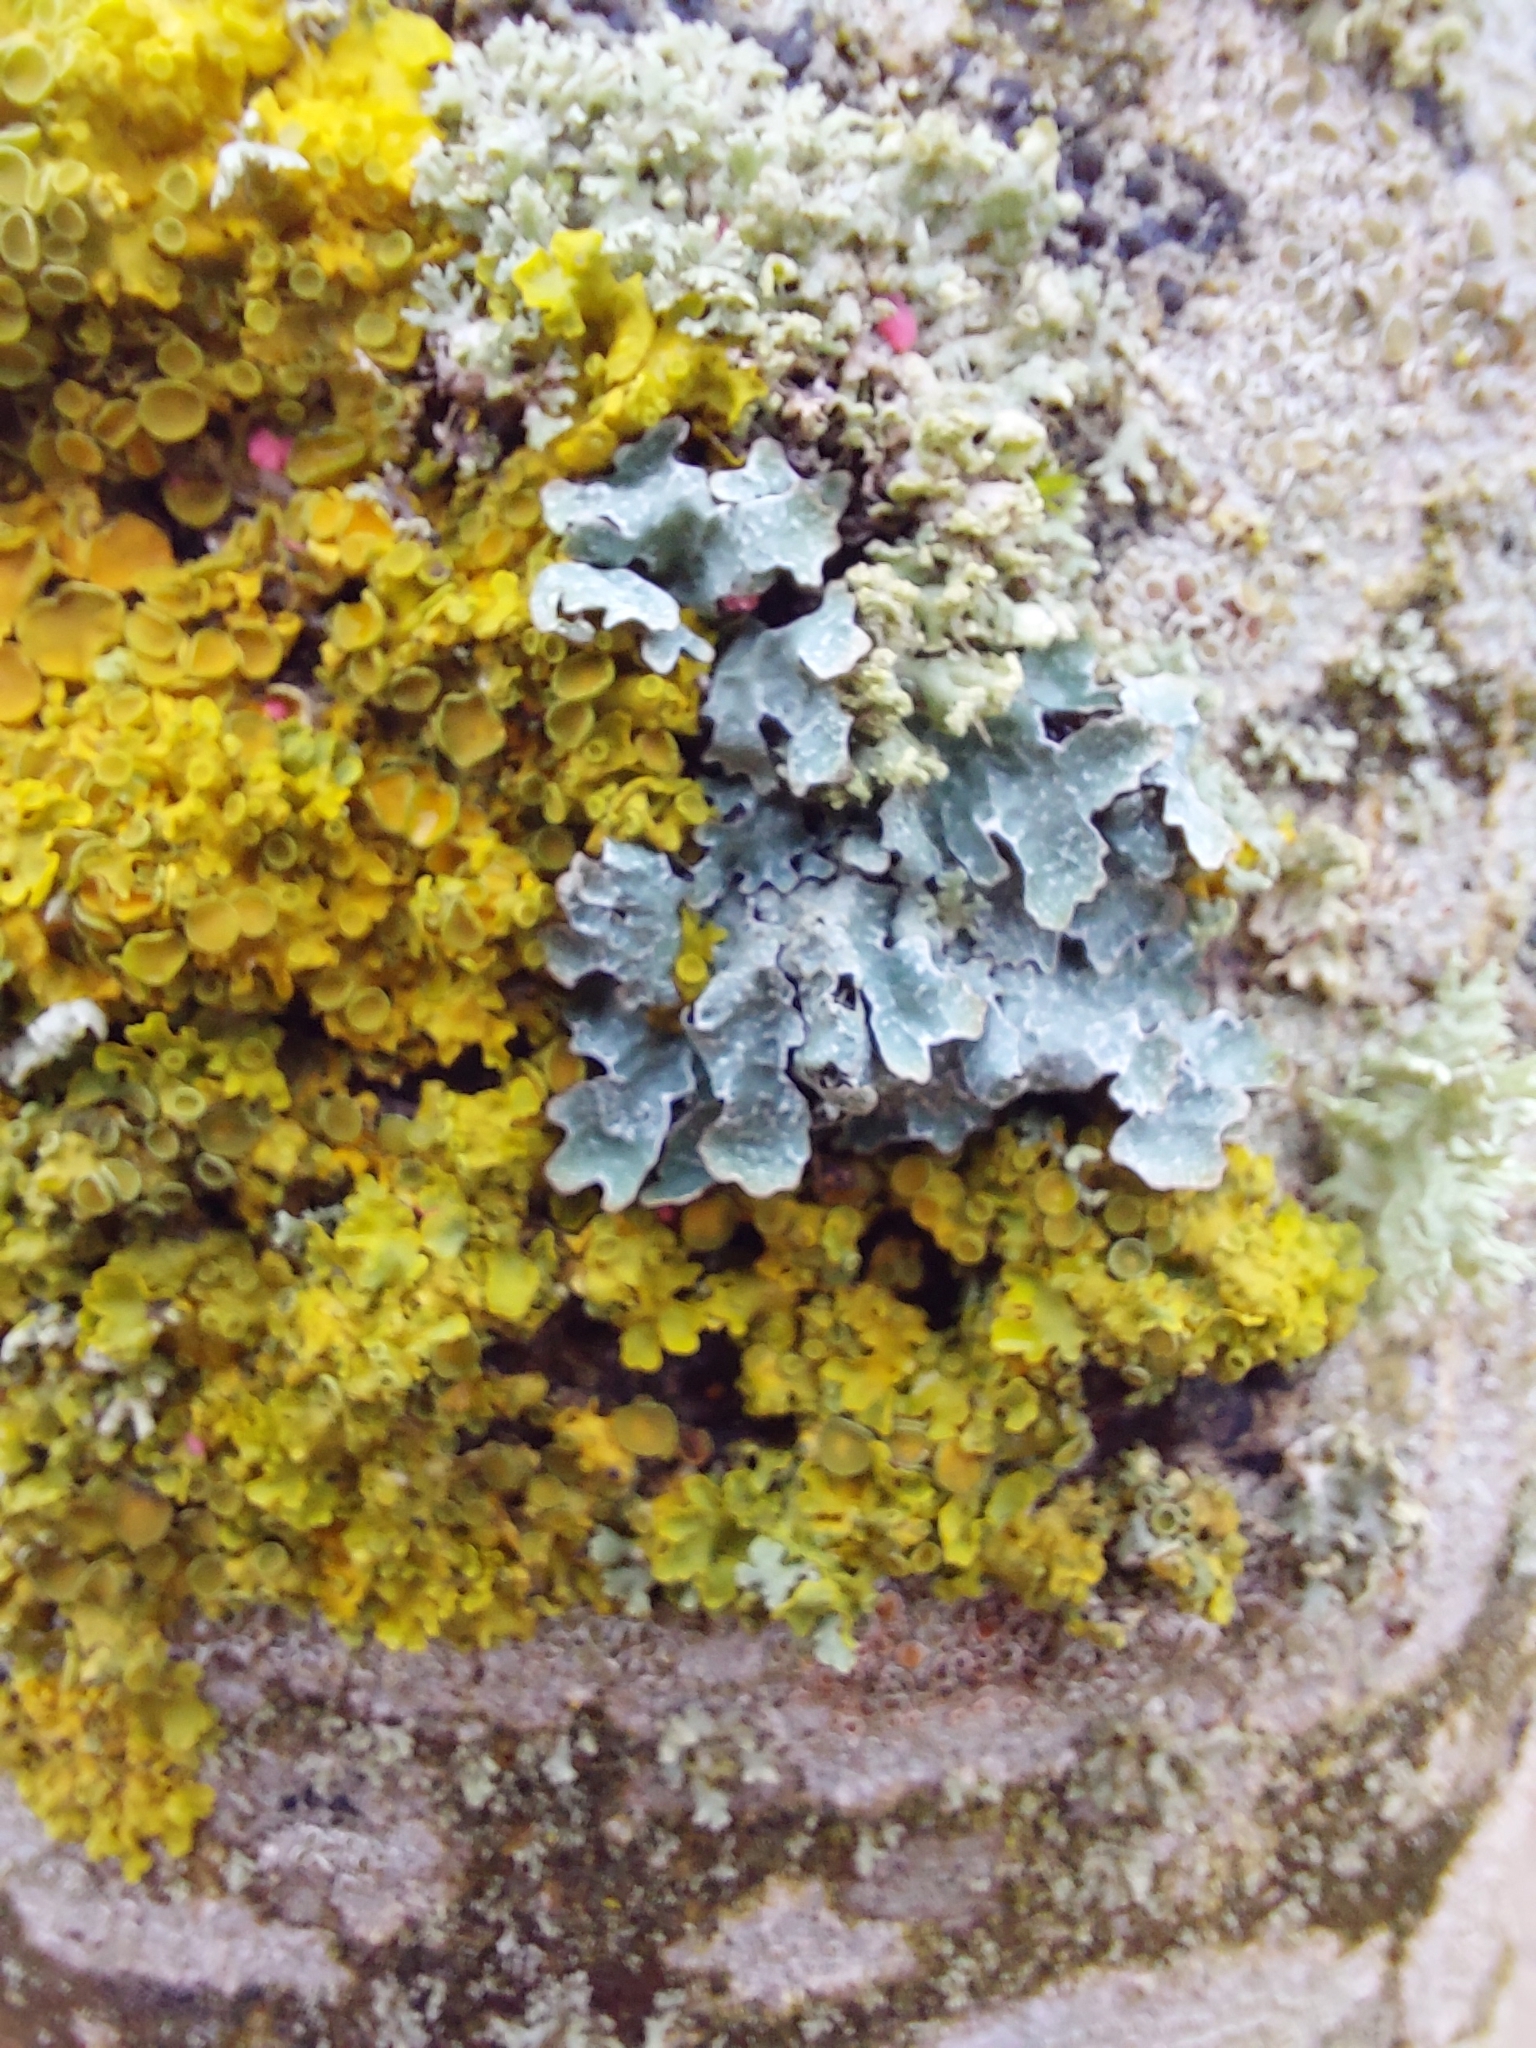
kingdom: Fungi
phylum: Ascomycota
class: Lecanoromycetes
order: Lecanorales
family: Parmeliaceae
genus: Parmelia
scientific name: Parmelia sulcata
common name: Netted shield lichen
